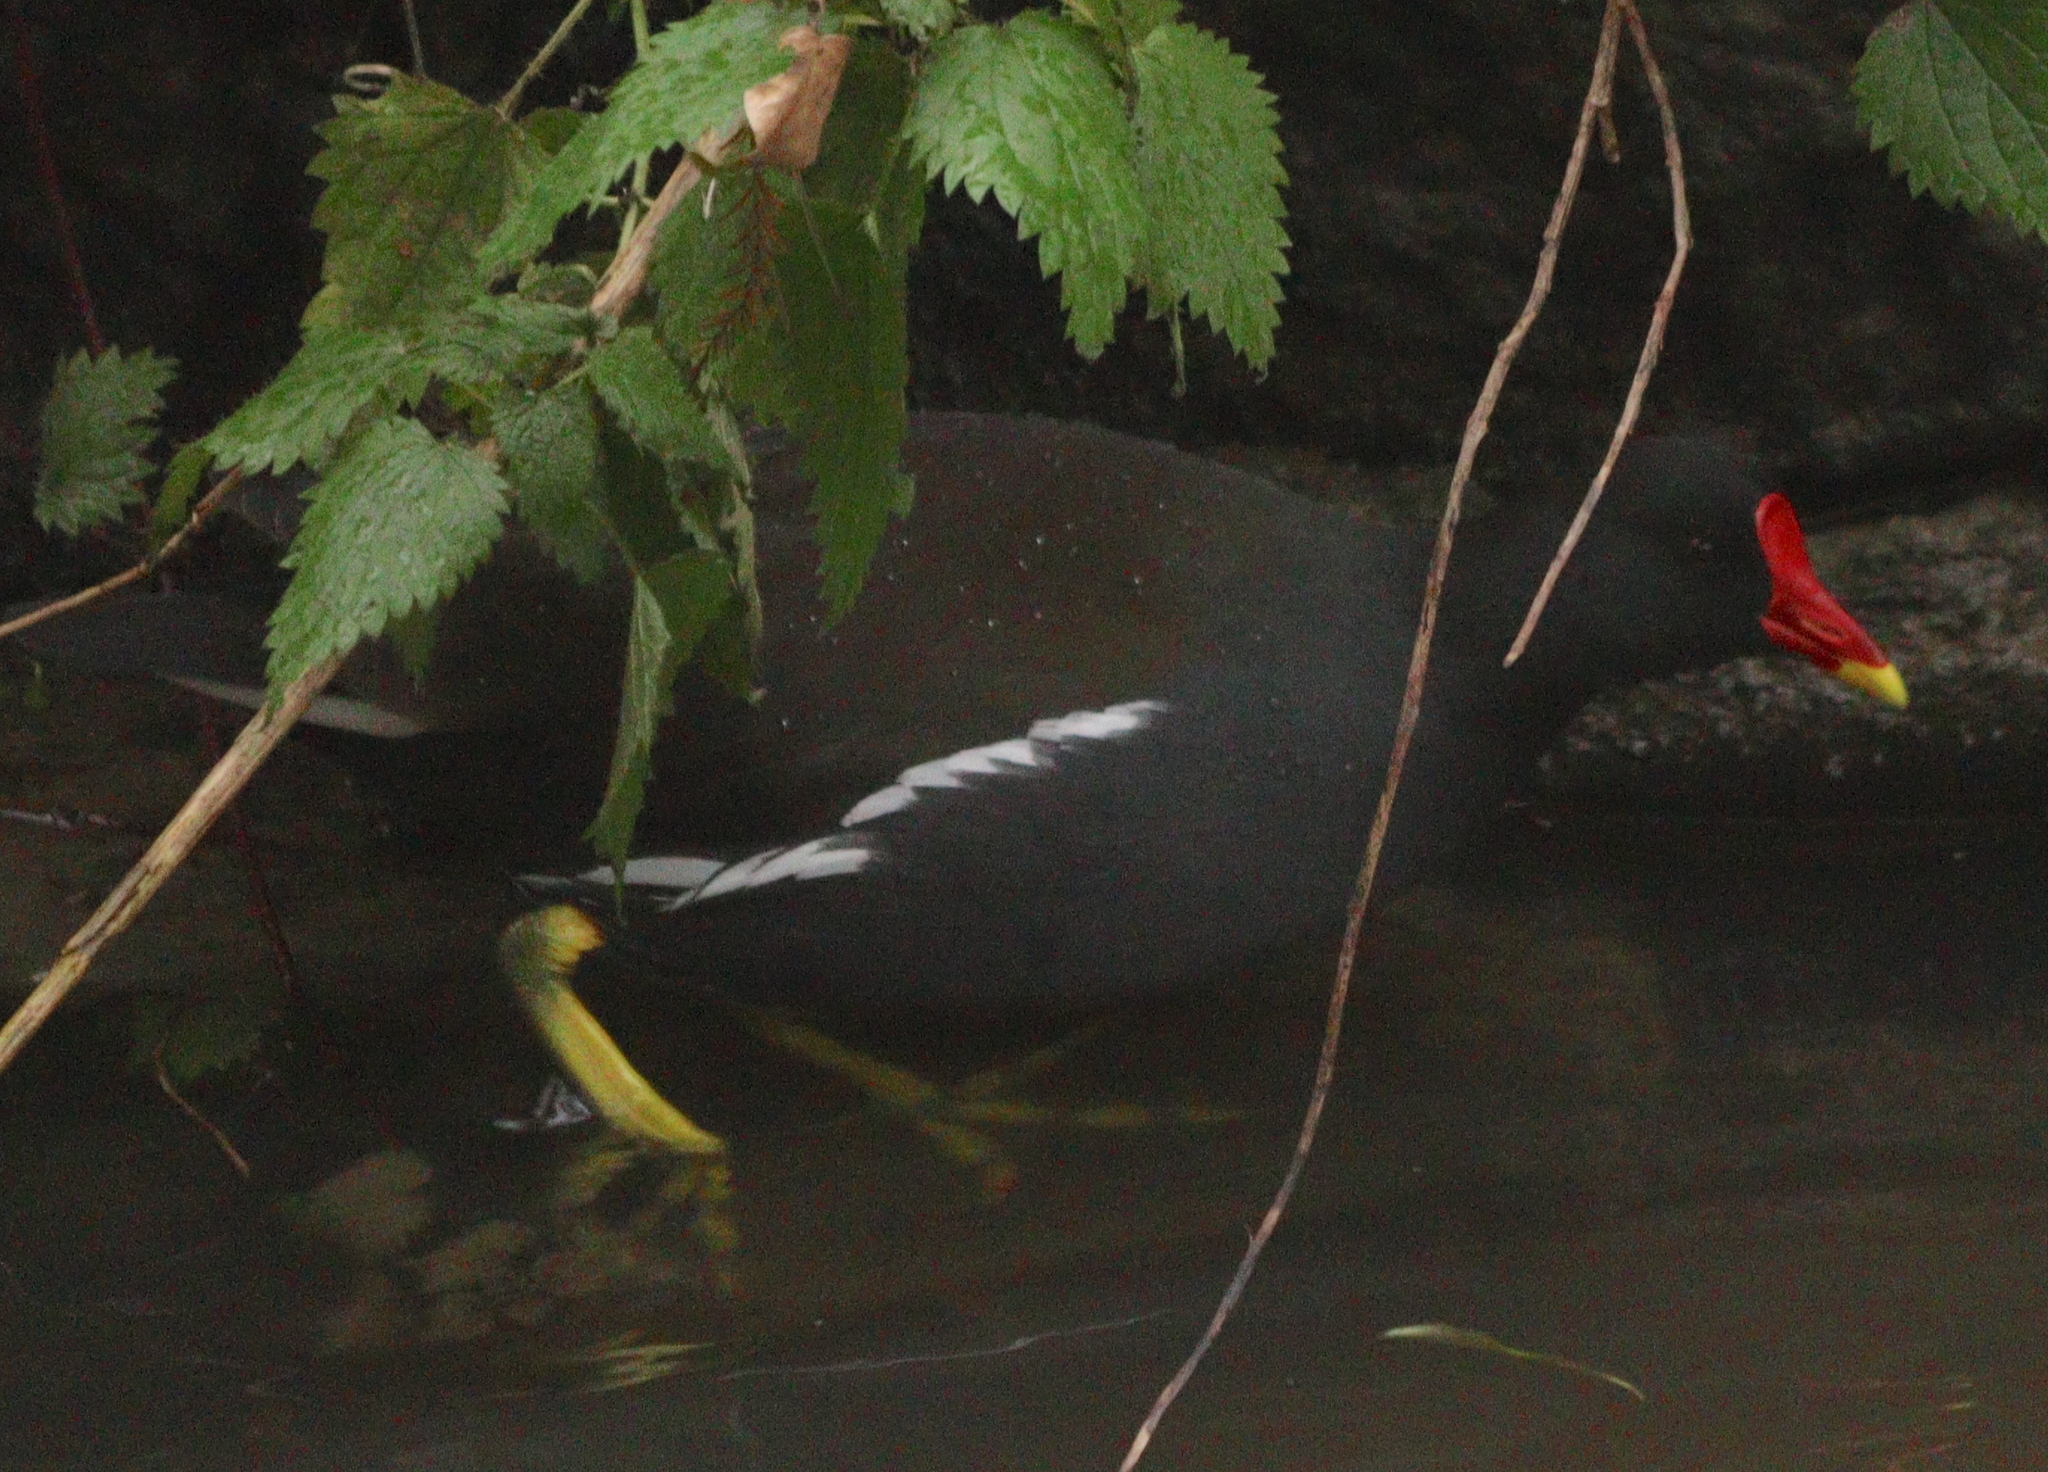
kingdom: Animalia
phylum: Chordata
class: Aves
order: Gruiformes
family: Rallidae
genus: Gallinula
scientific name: Gallinula chloropus
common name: Common moorhen
